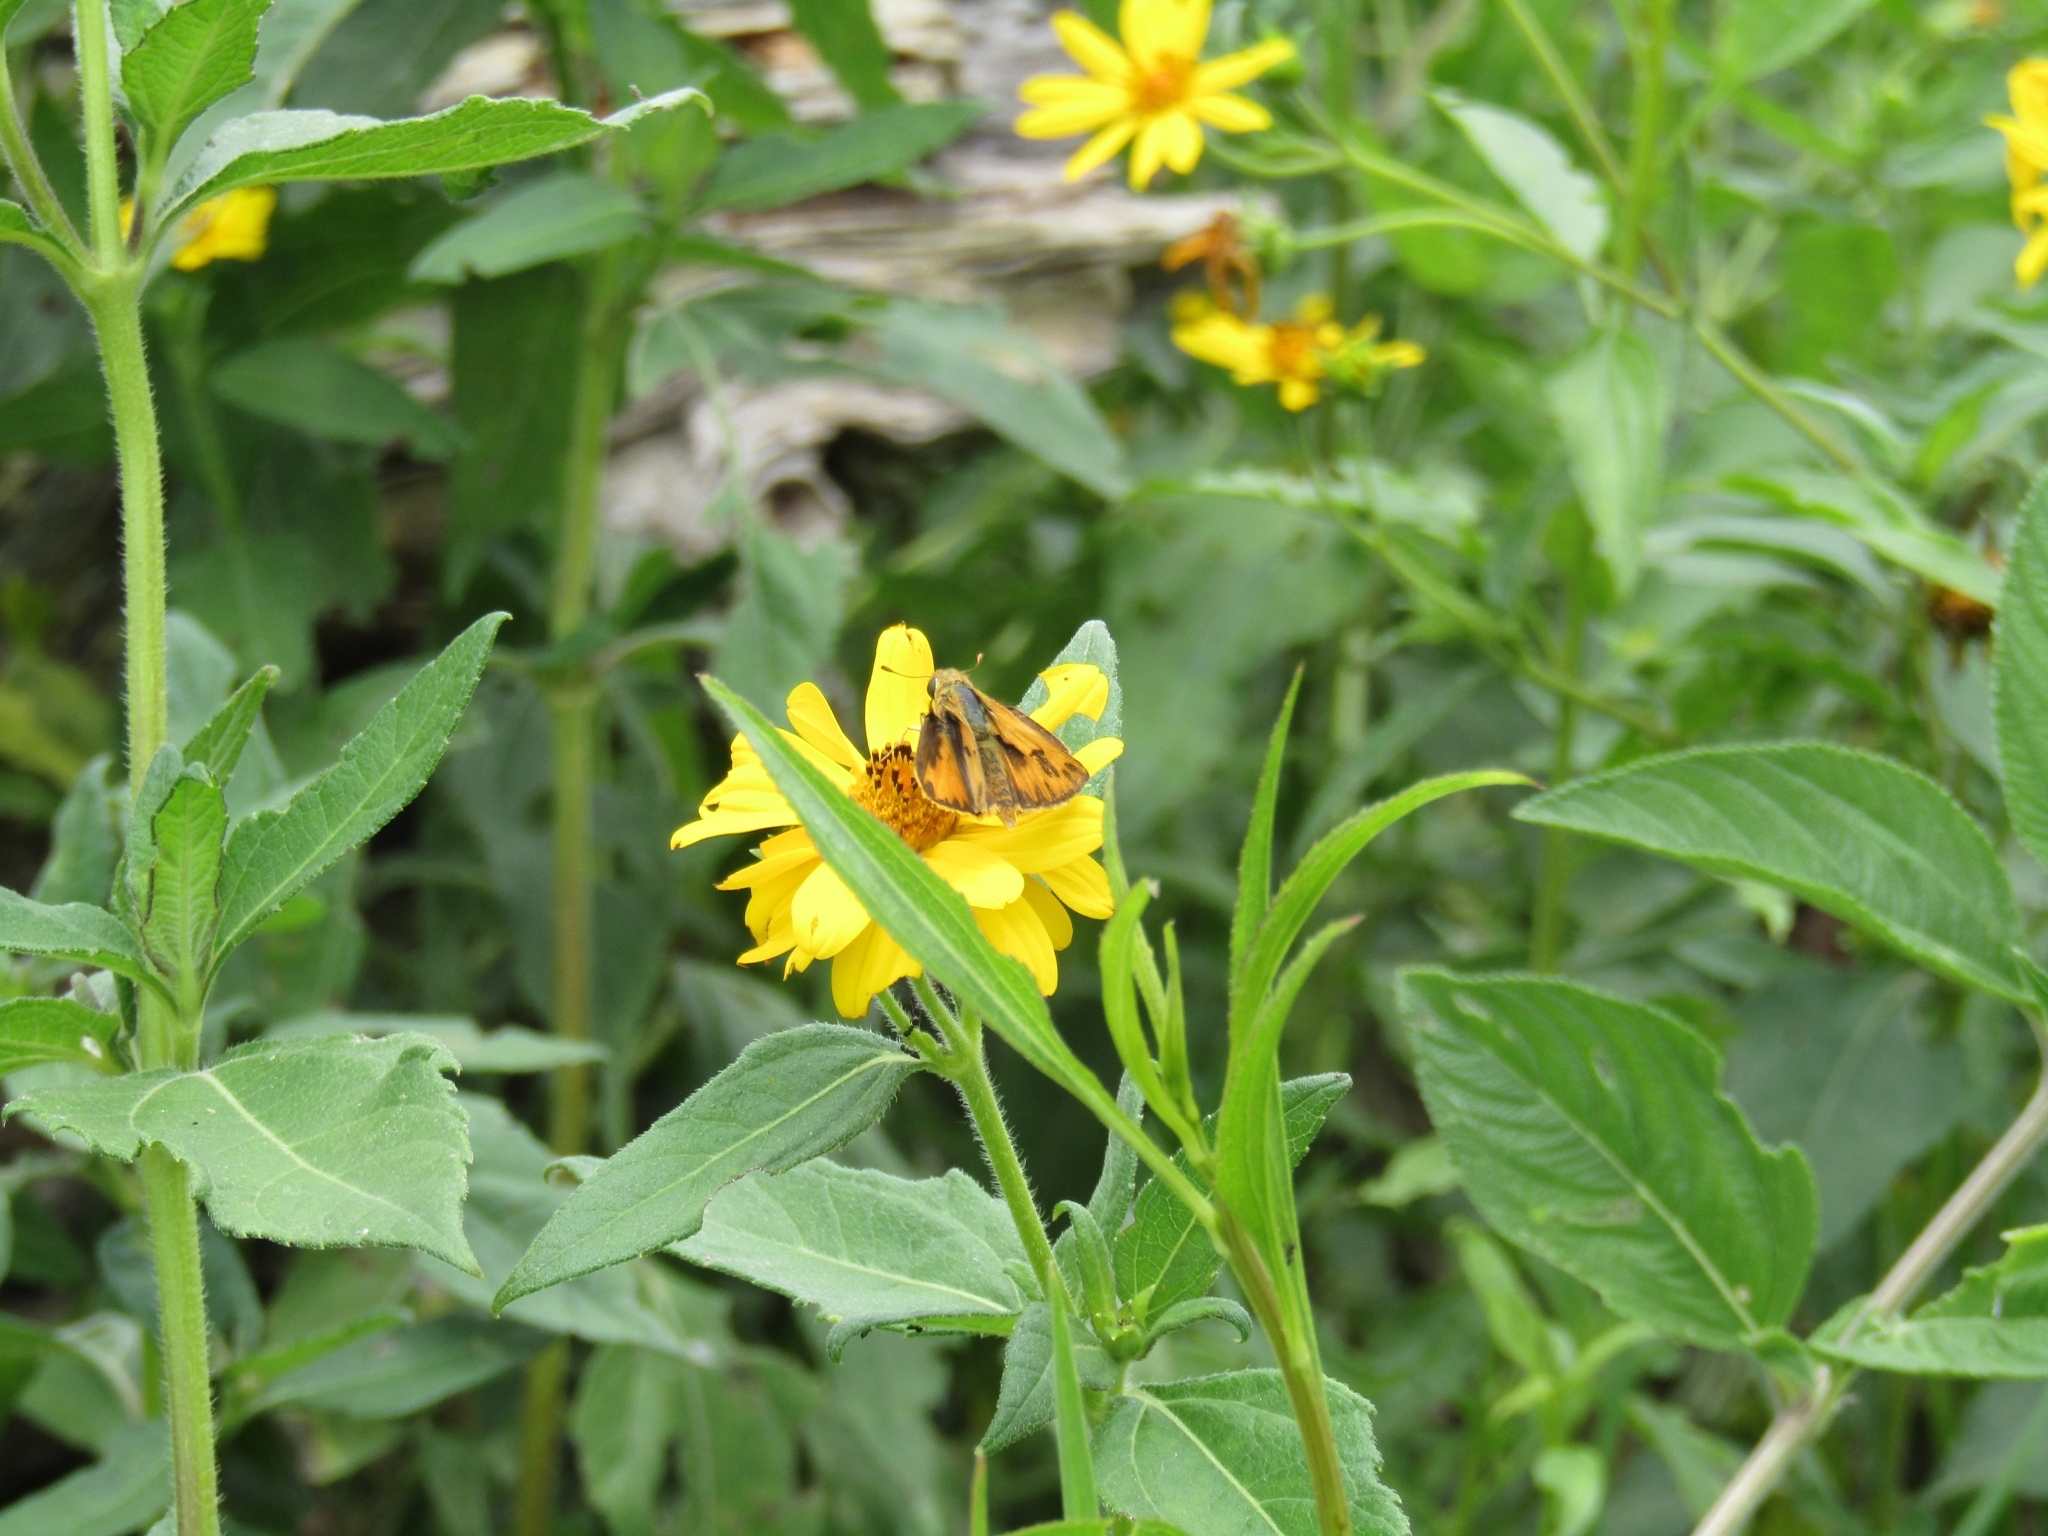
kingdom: Animalia
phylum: Arthropoda
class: Insecta
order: Lepidoptera
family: Hesperiidae
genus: Hylephila
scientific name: Hylephila phyleus
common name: Fiery skipper
